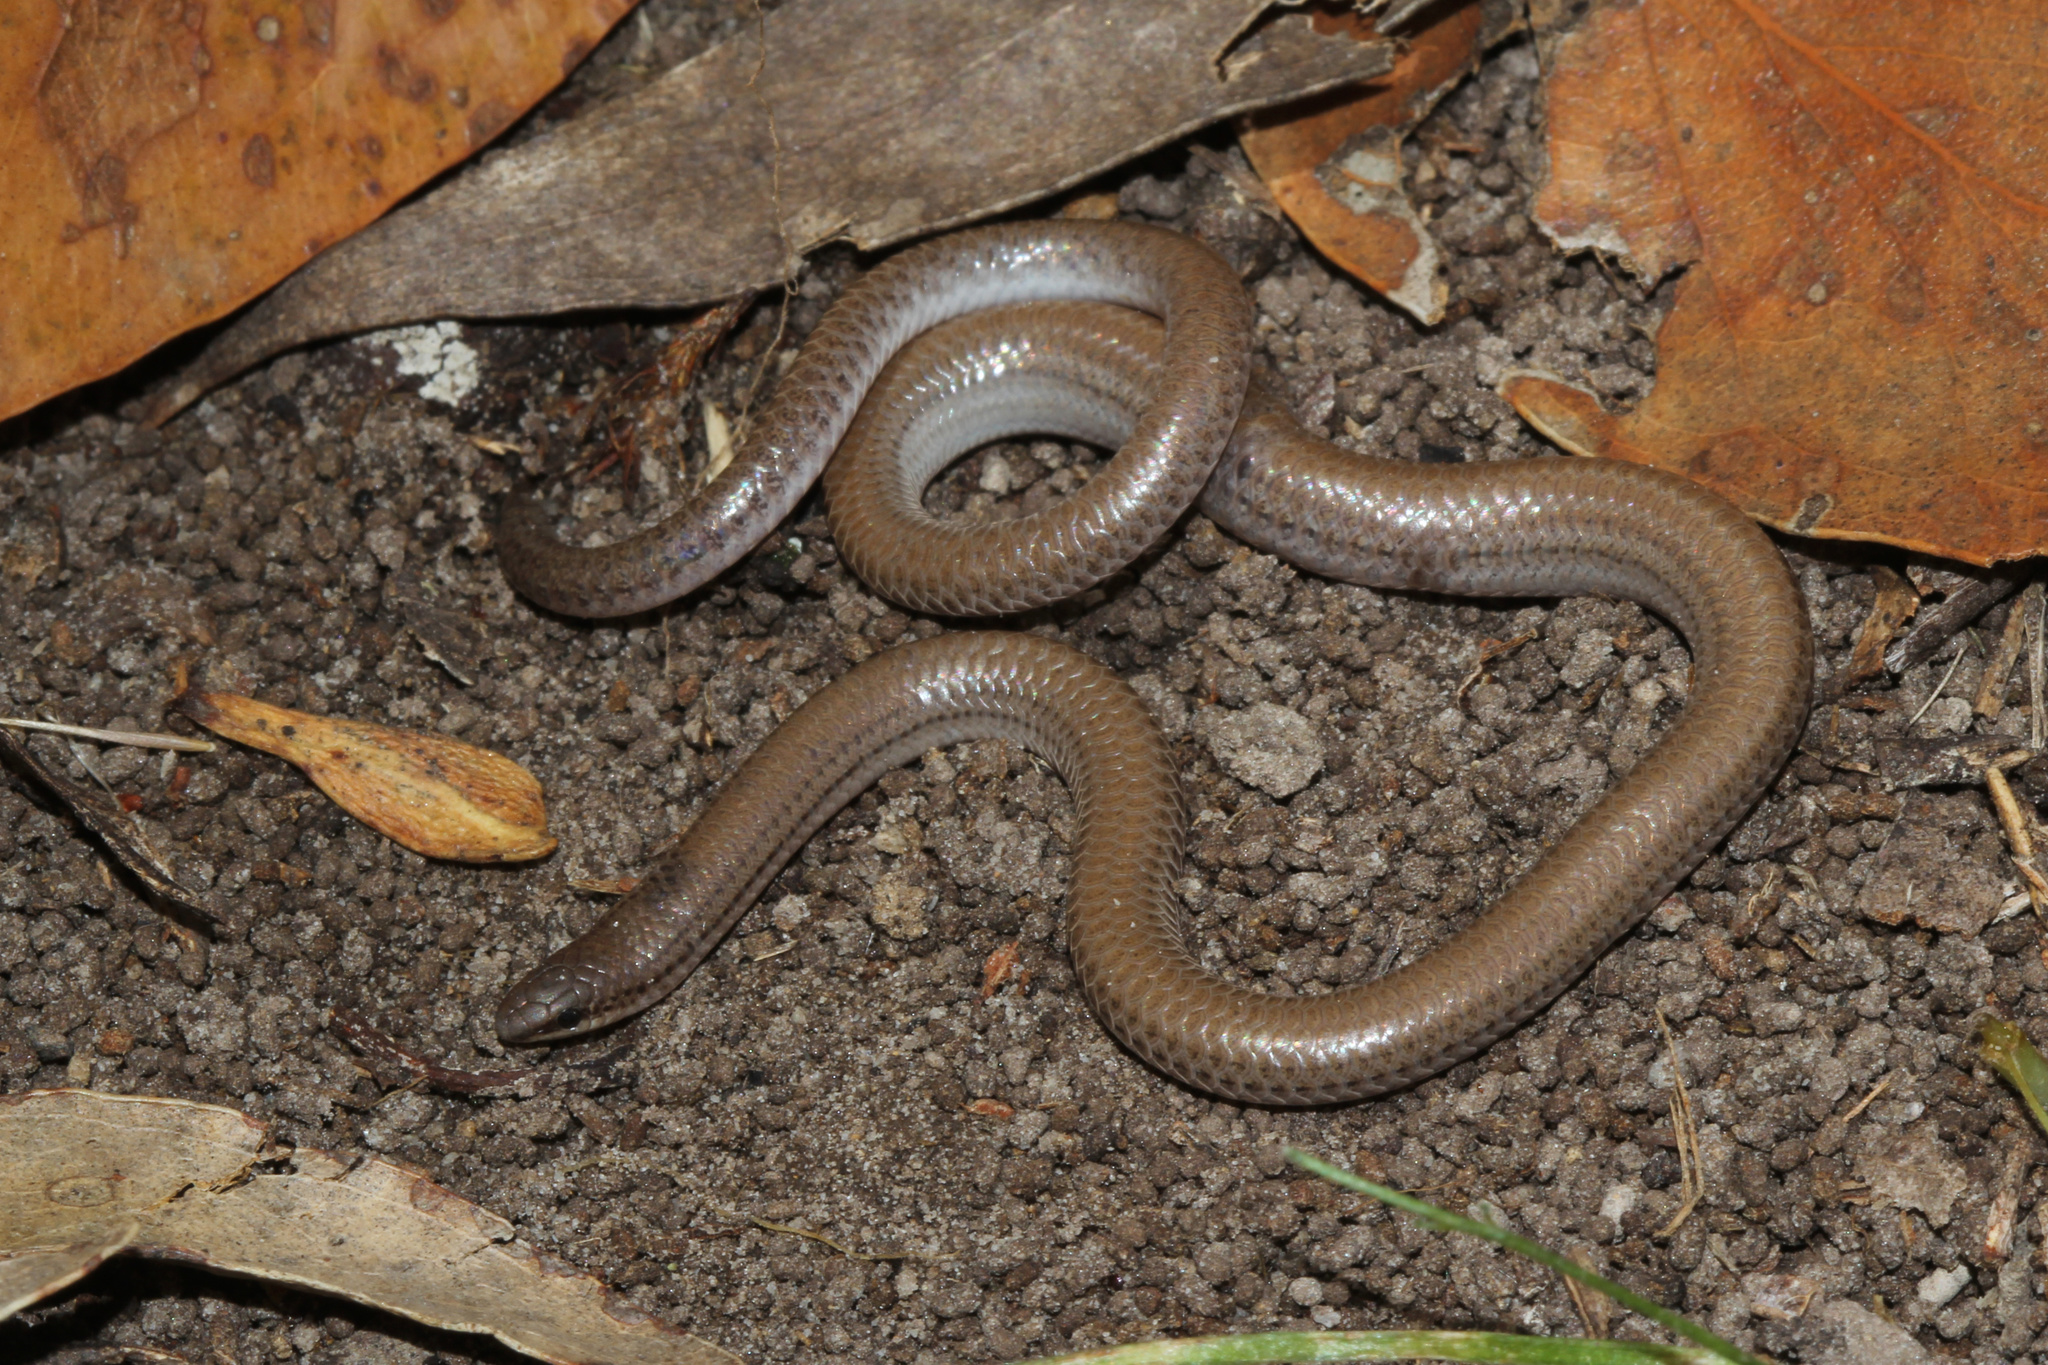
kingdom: Animalia
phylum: Chordata
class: Squamata
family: Pygopodidae
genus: Aprasia
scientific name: Aprasia striolata
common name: Striated worm-lizard
